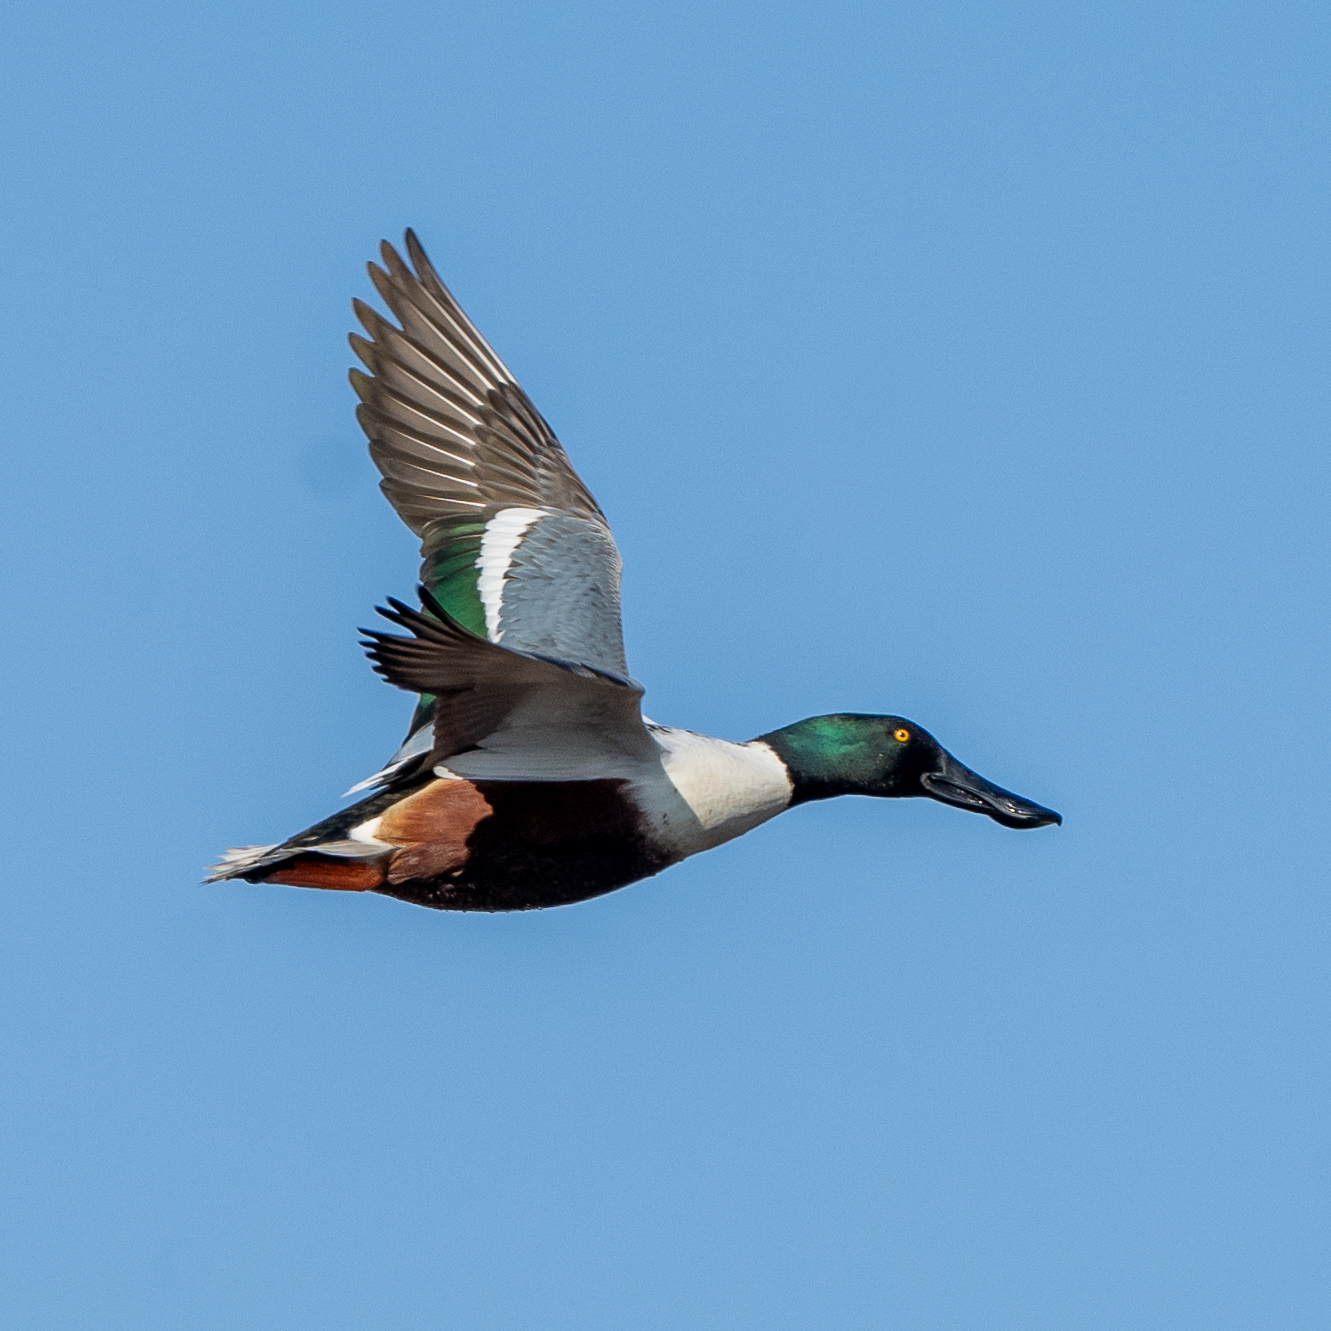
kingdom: Animalia
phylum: Chordata
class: Aves
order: Anseriformes
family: Anatidae
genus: Spatula
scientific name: Spatula clypeata
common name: Northern shoveler
